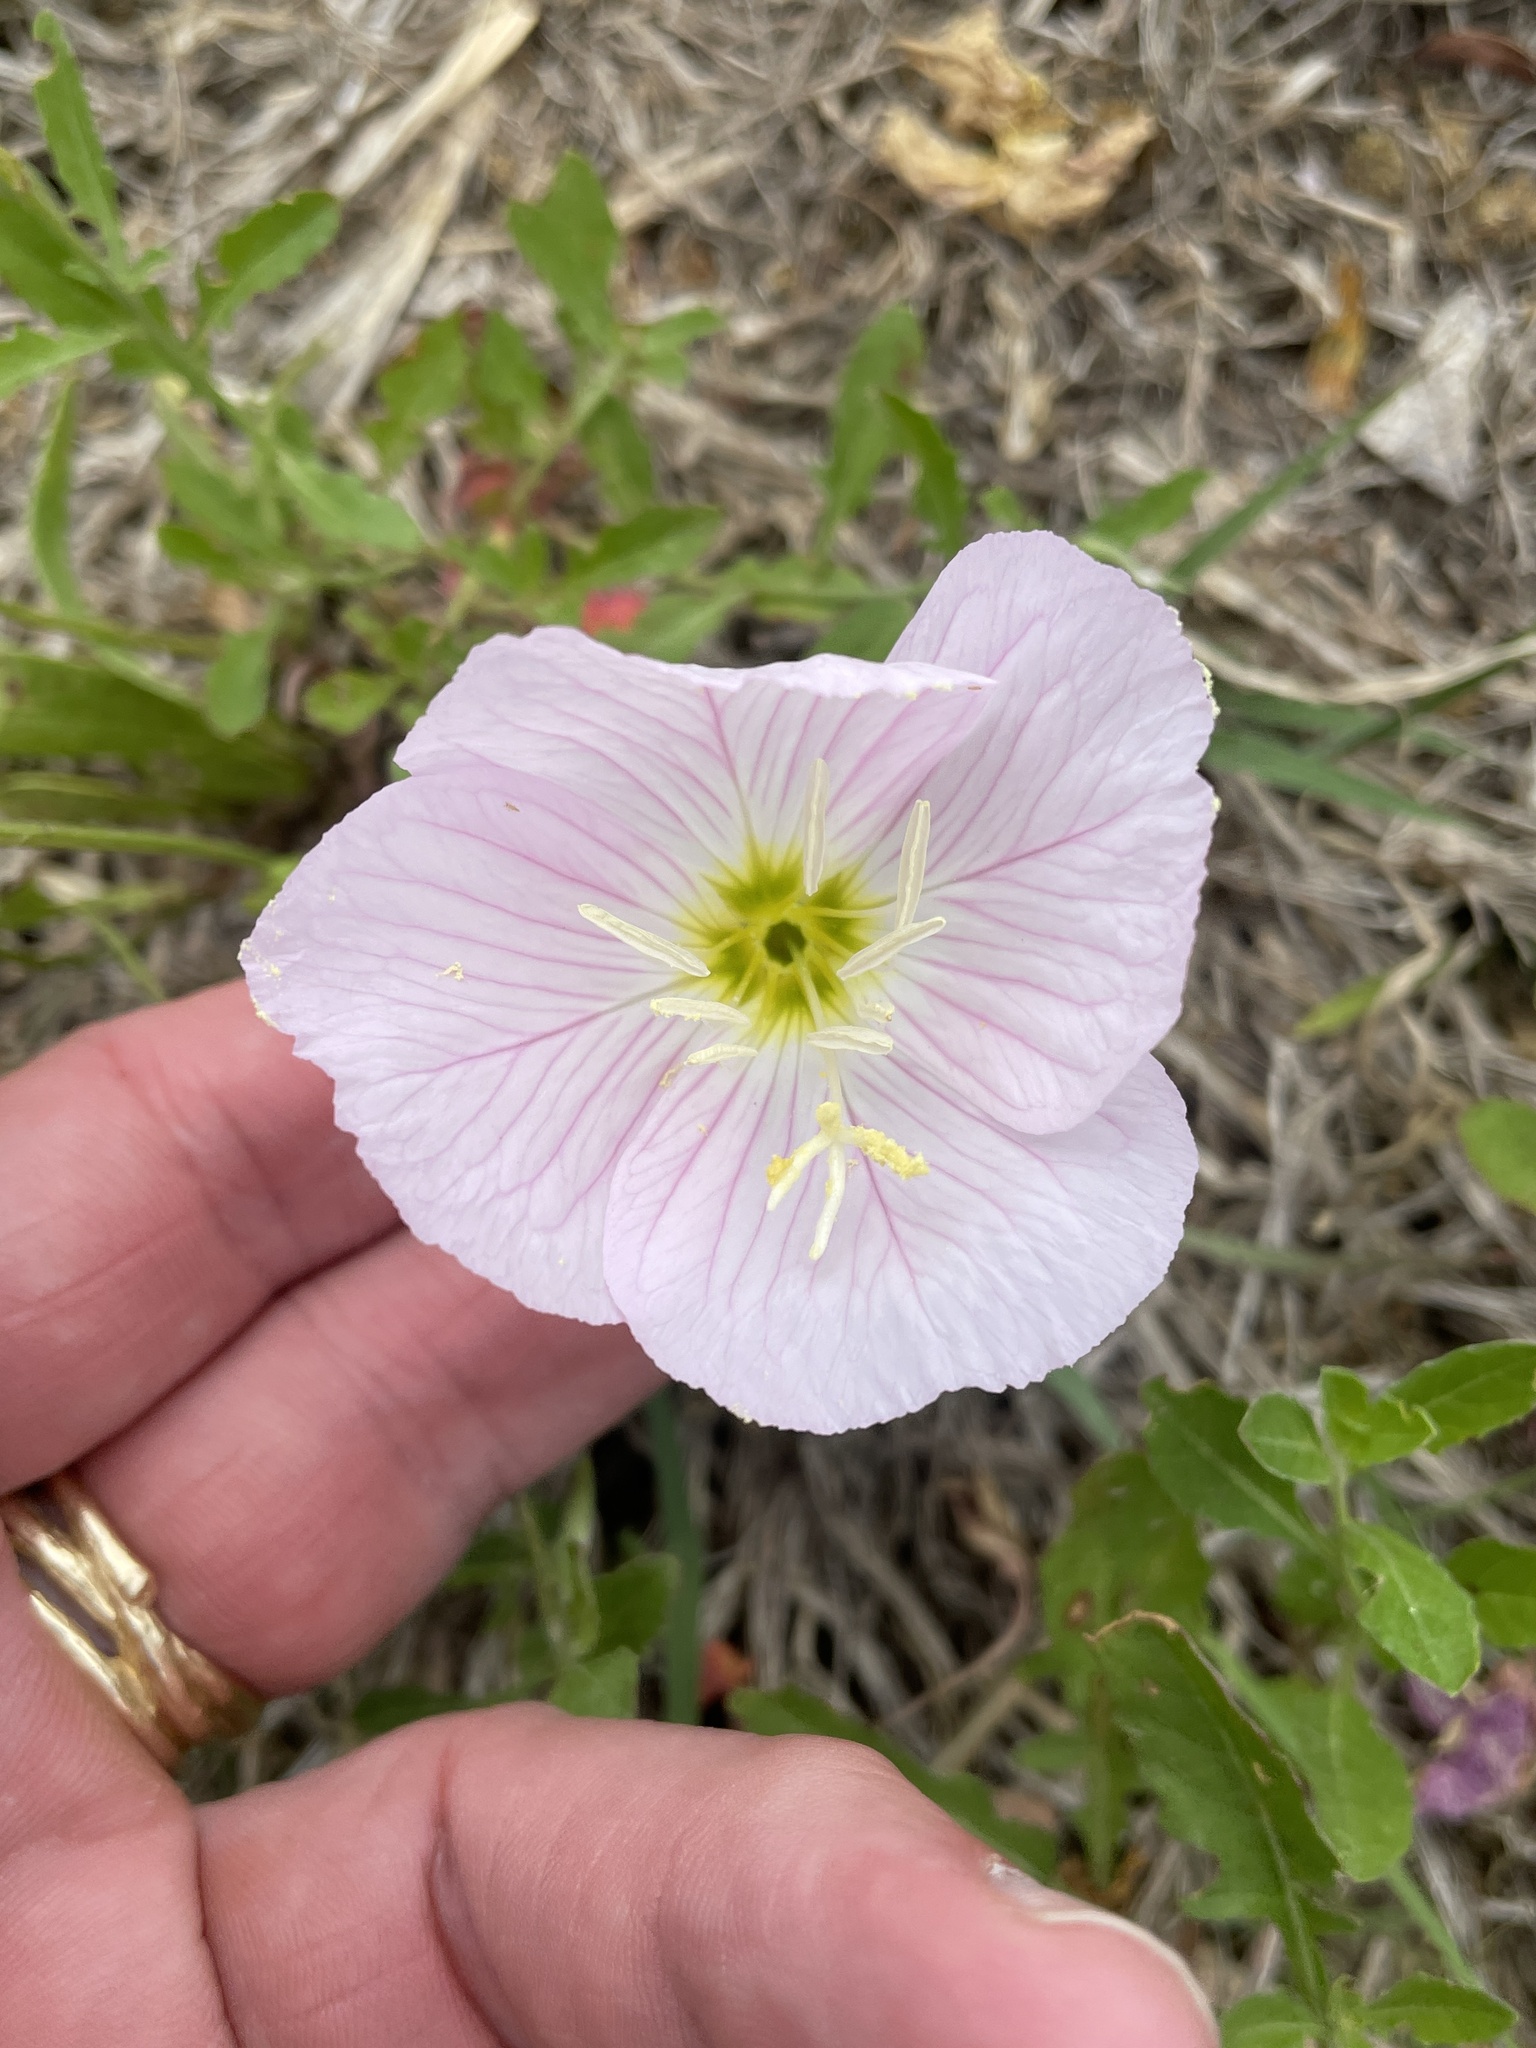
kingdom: Plantae
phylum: Tracheophyta
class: Magnoliopsida
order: Myrtales
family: Onagraceae
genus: Oenothera
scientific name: Oenothera speciosa
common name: White evening-primrose
